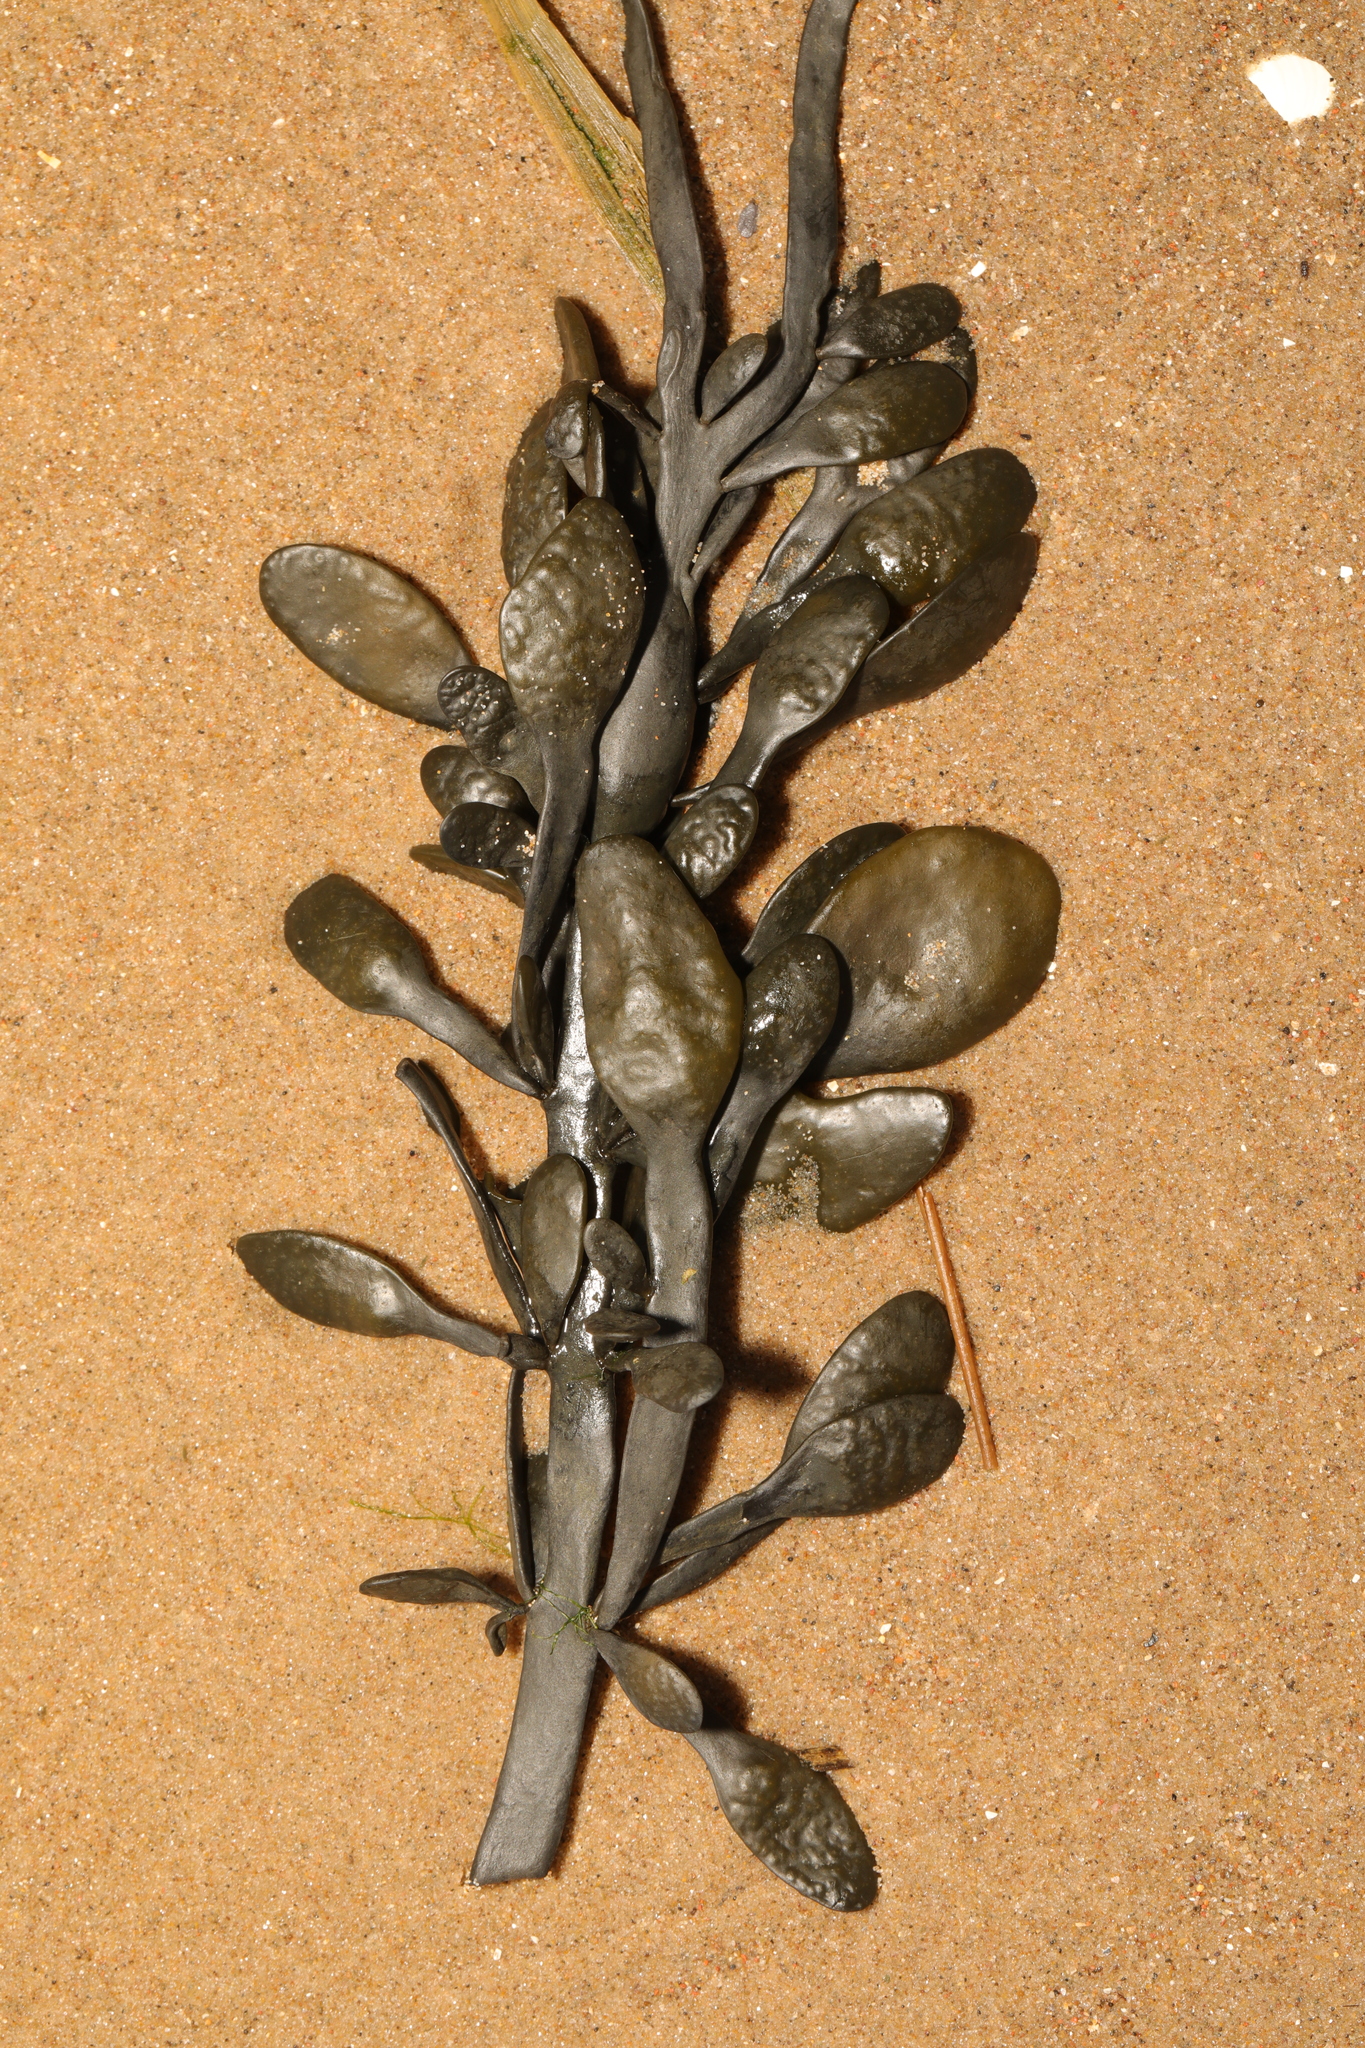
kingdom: Chromista
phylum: Ochrophyta
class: Phaeophyceae
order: Fucales
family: Fucaceae
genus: Ascophyllum
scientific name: Ascophyllum nodosum
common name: Knotted wrack
